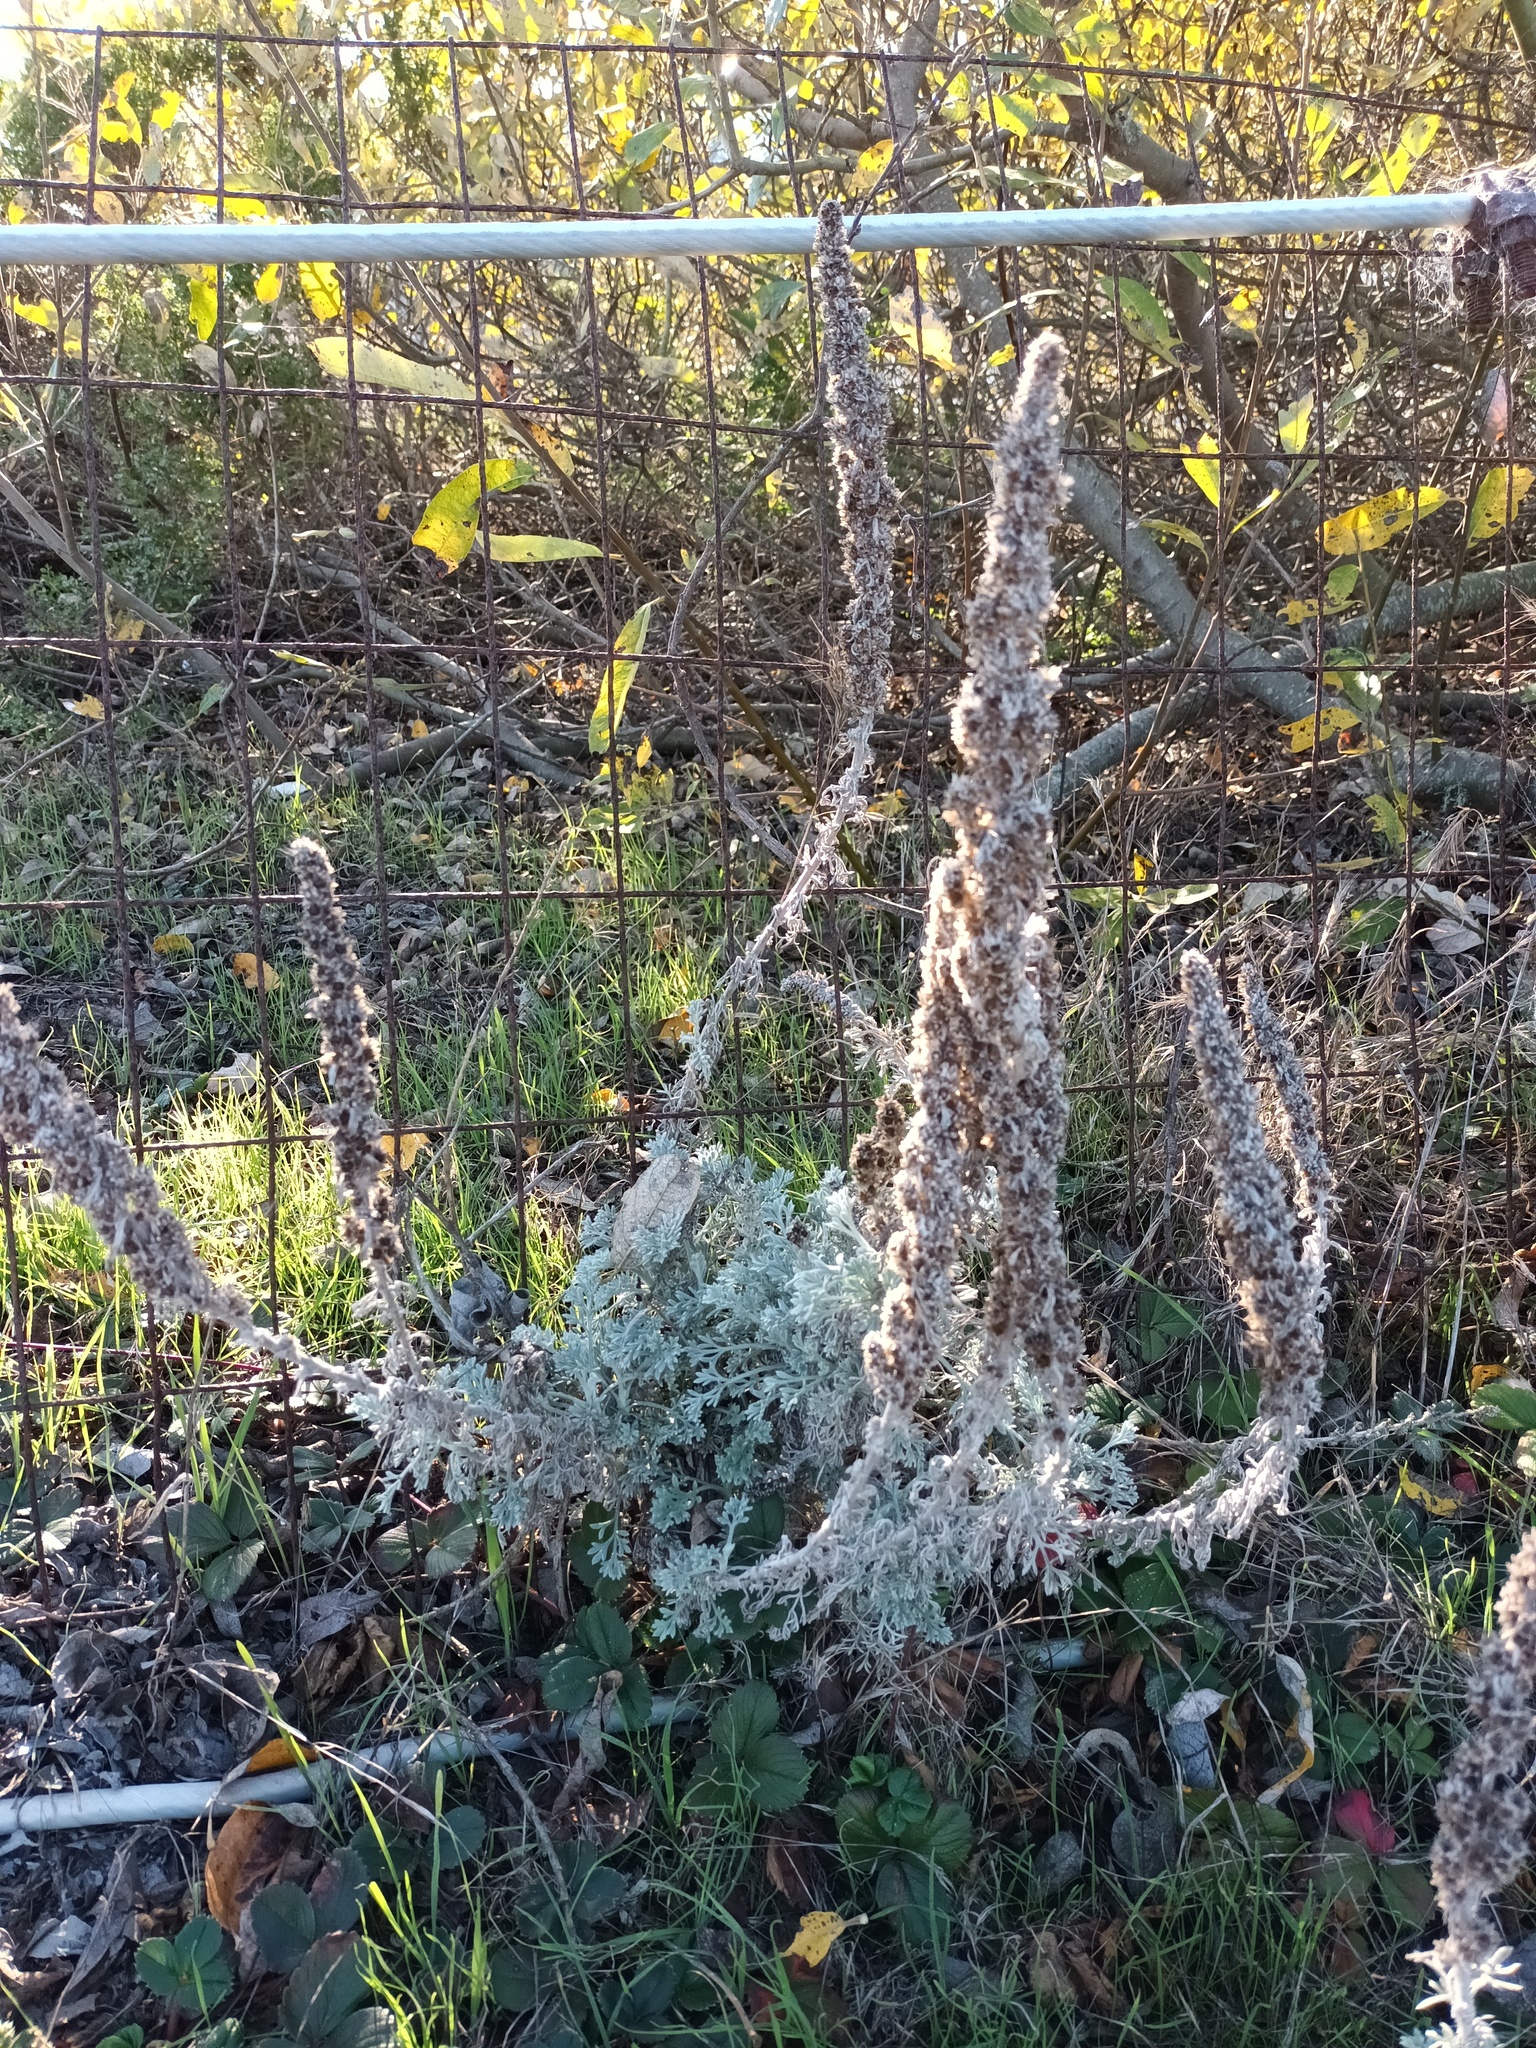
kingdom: Plantae
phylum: Tracheophyta
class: Magnoliopsida
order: Asterales
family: Asteraceae
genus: Artemisia
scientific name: Artemisia pycnocephala
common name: Coastal sagewort
